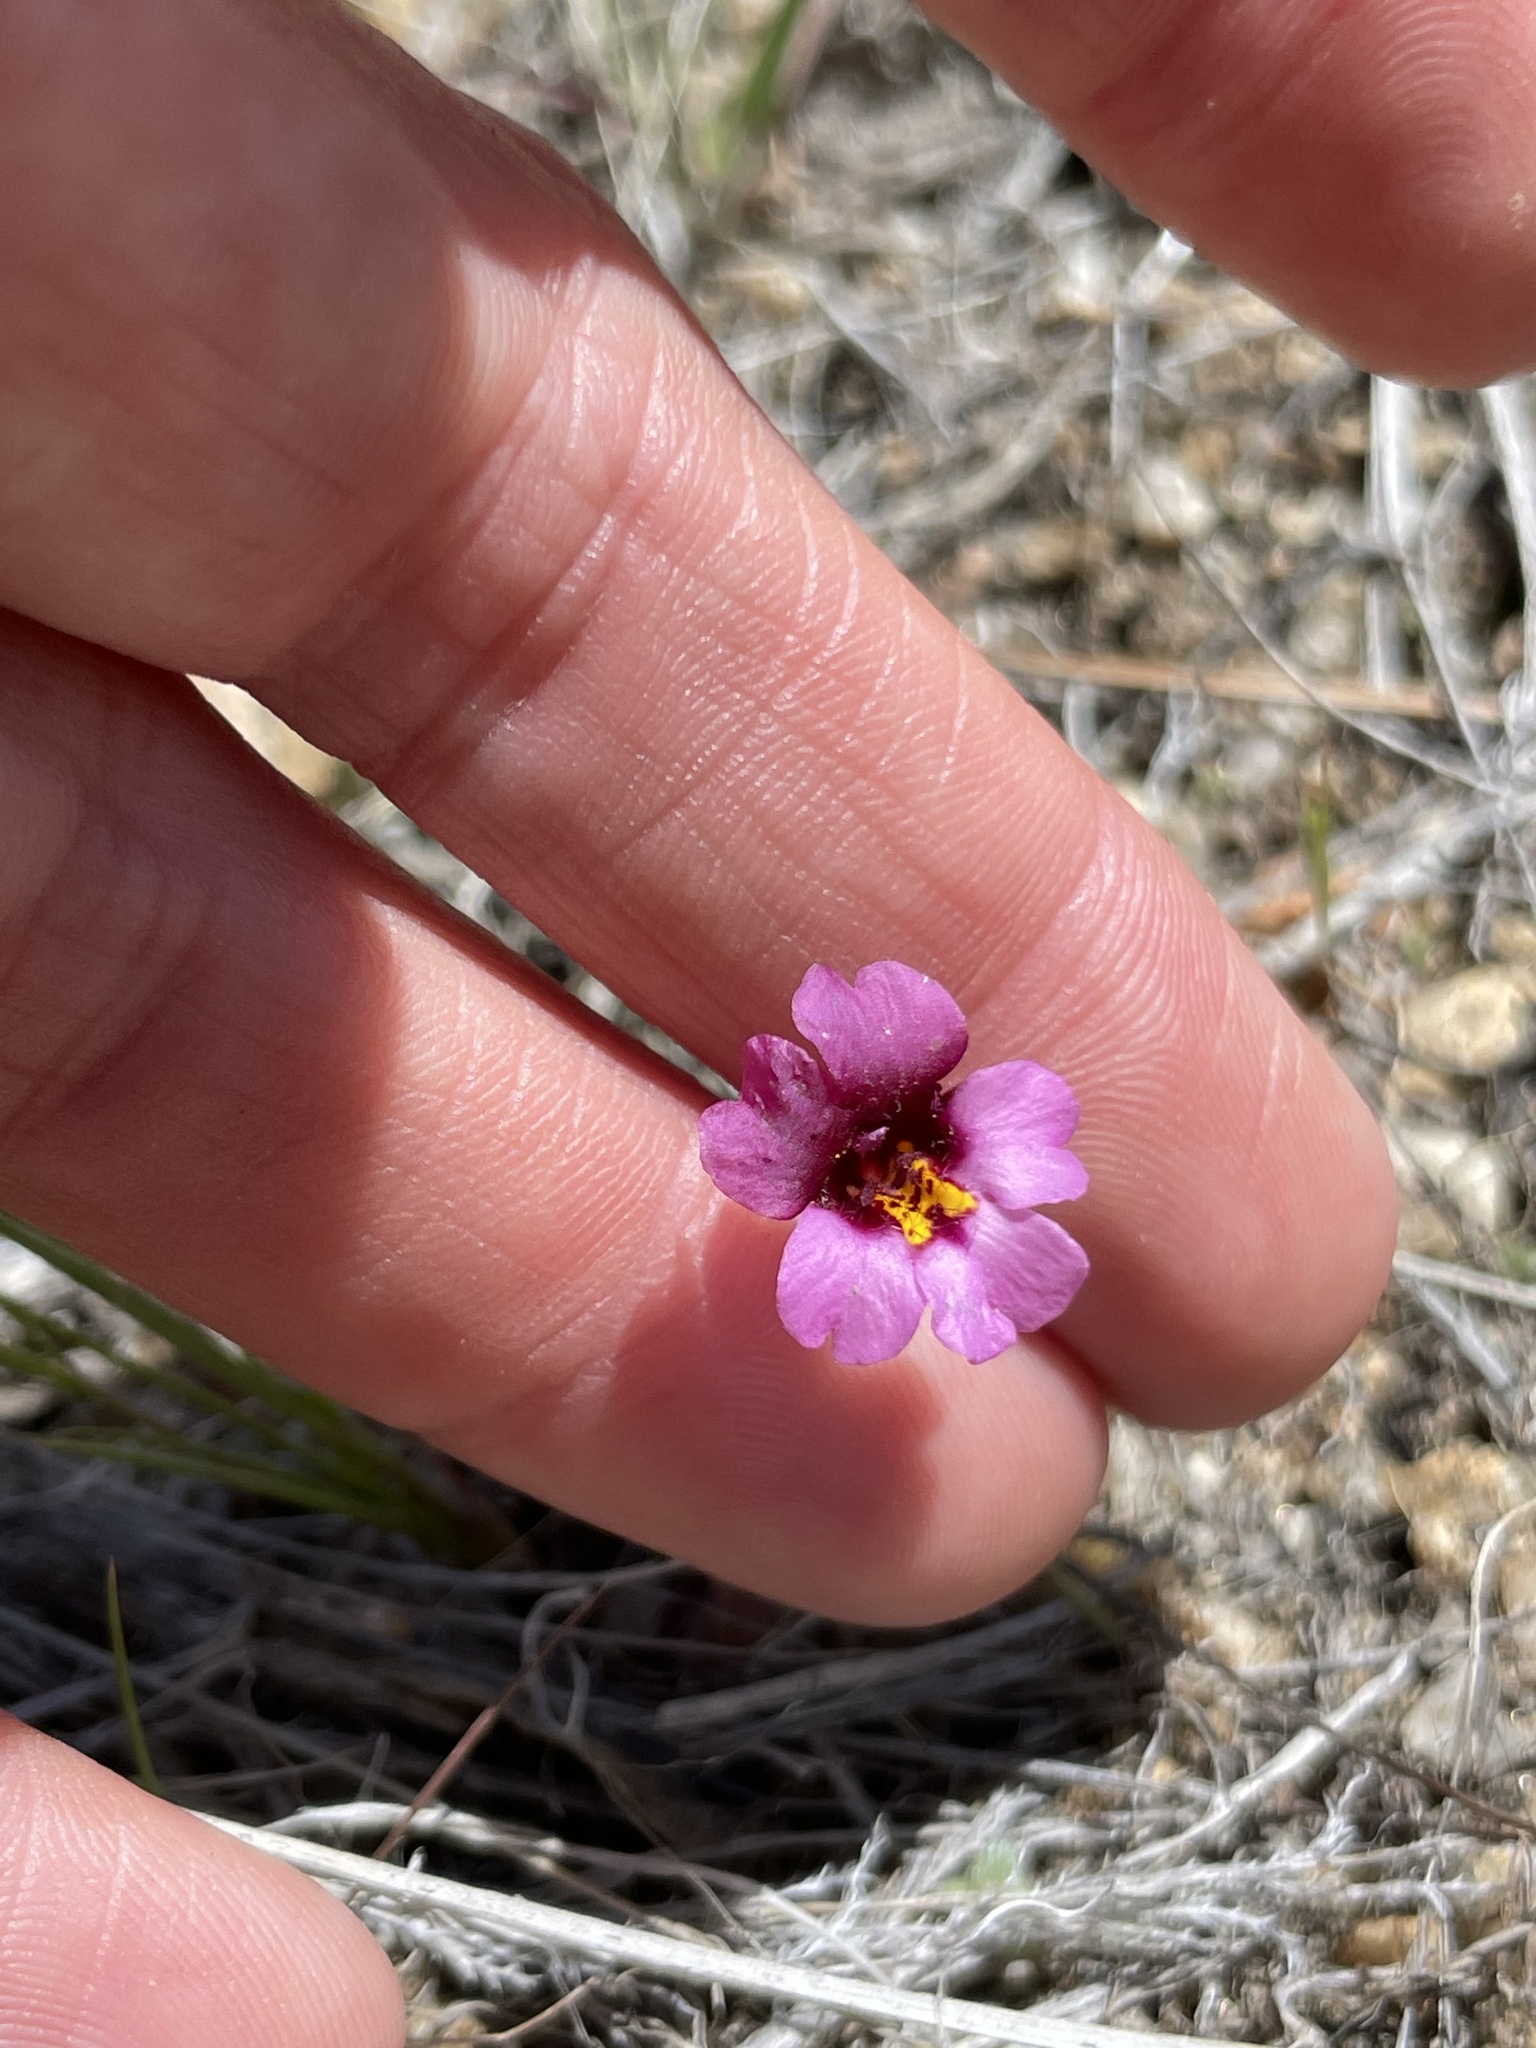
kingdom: Plantae
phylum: Tracheophyta
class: Magnoliopsida
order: Lamiales
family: Phrymaceae
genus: Erythranthe
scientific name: Erythranthe purpurea
